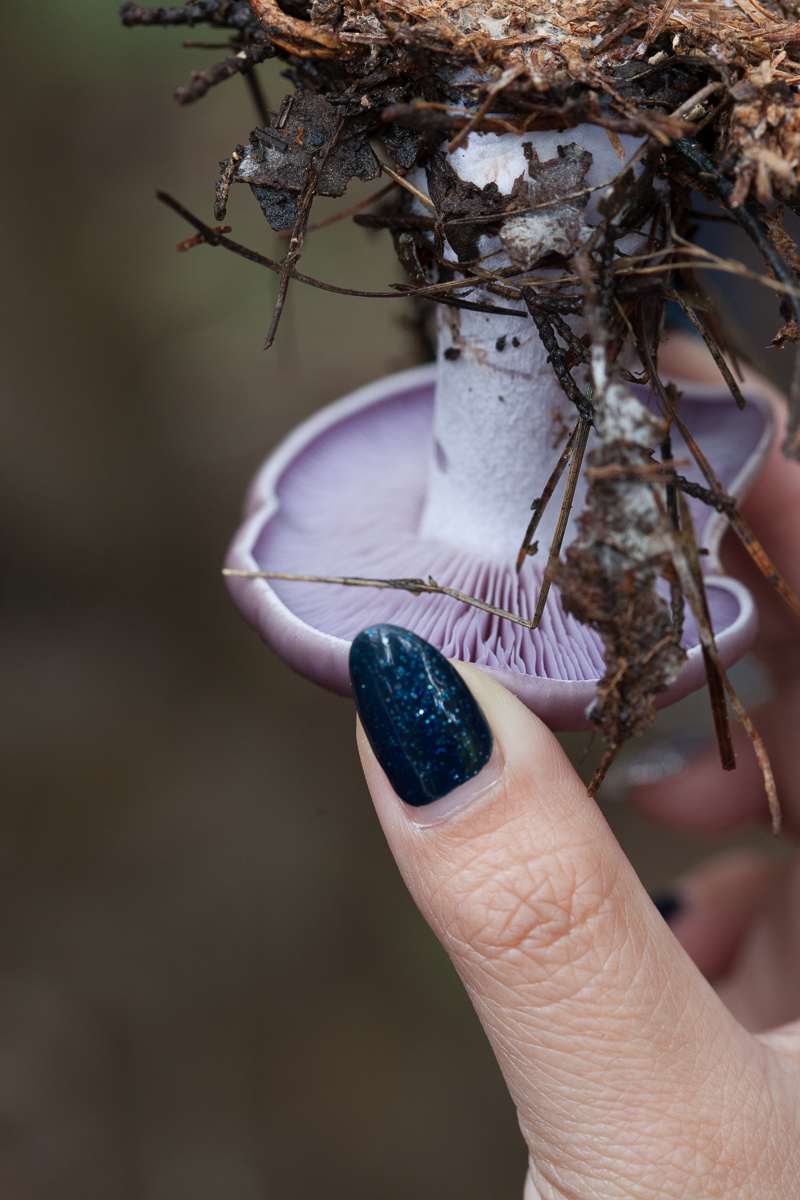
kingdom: Fungi
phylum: Basidiomycota
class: Agaricomycetes
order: Agaricales
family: Tricholomataceae
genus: Collybia
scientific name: Collybia
